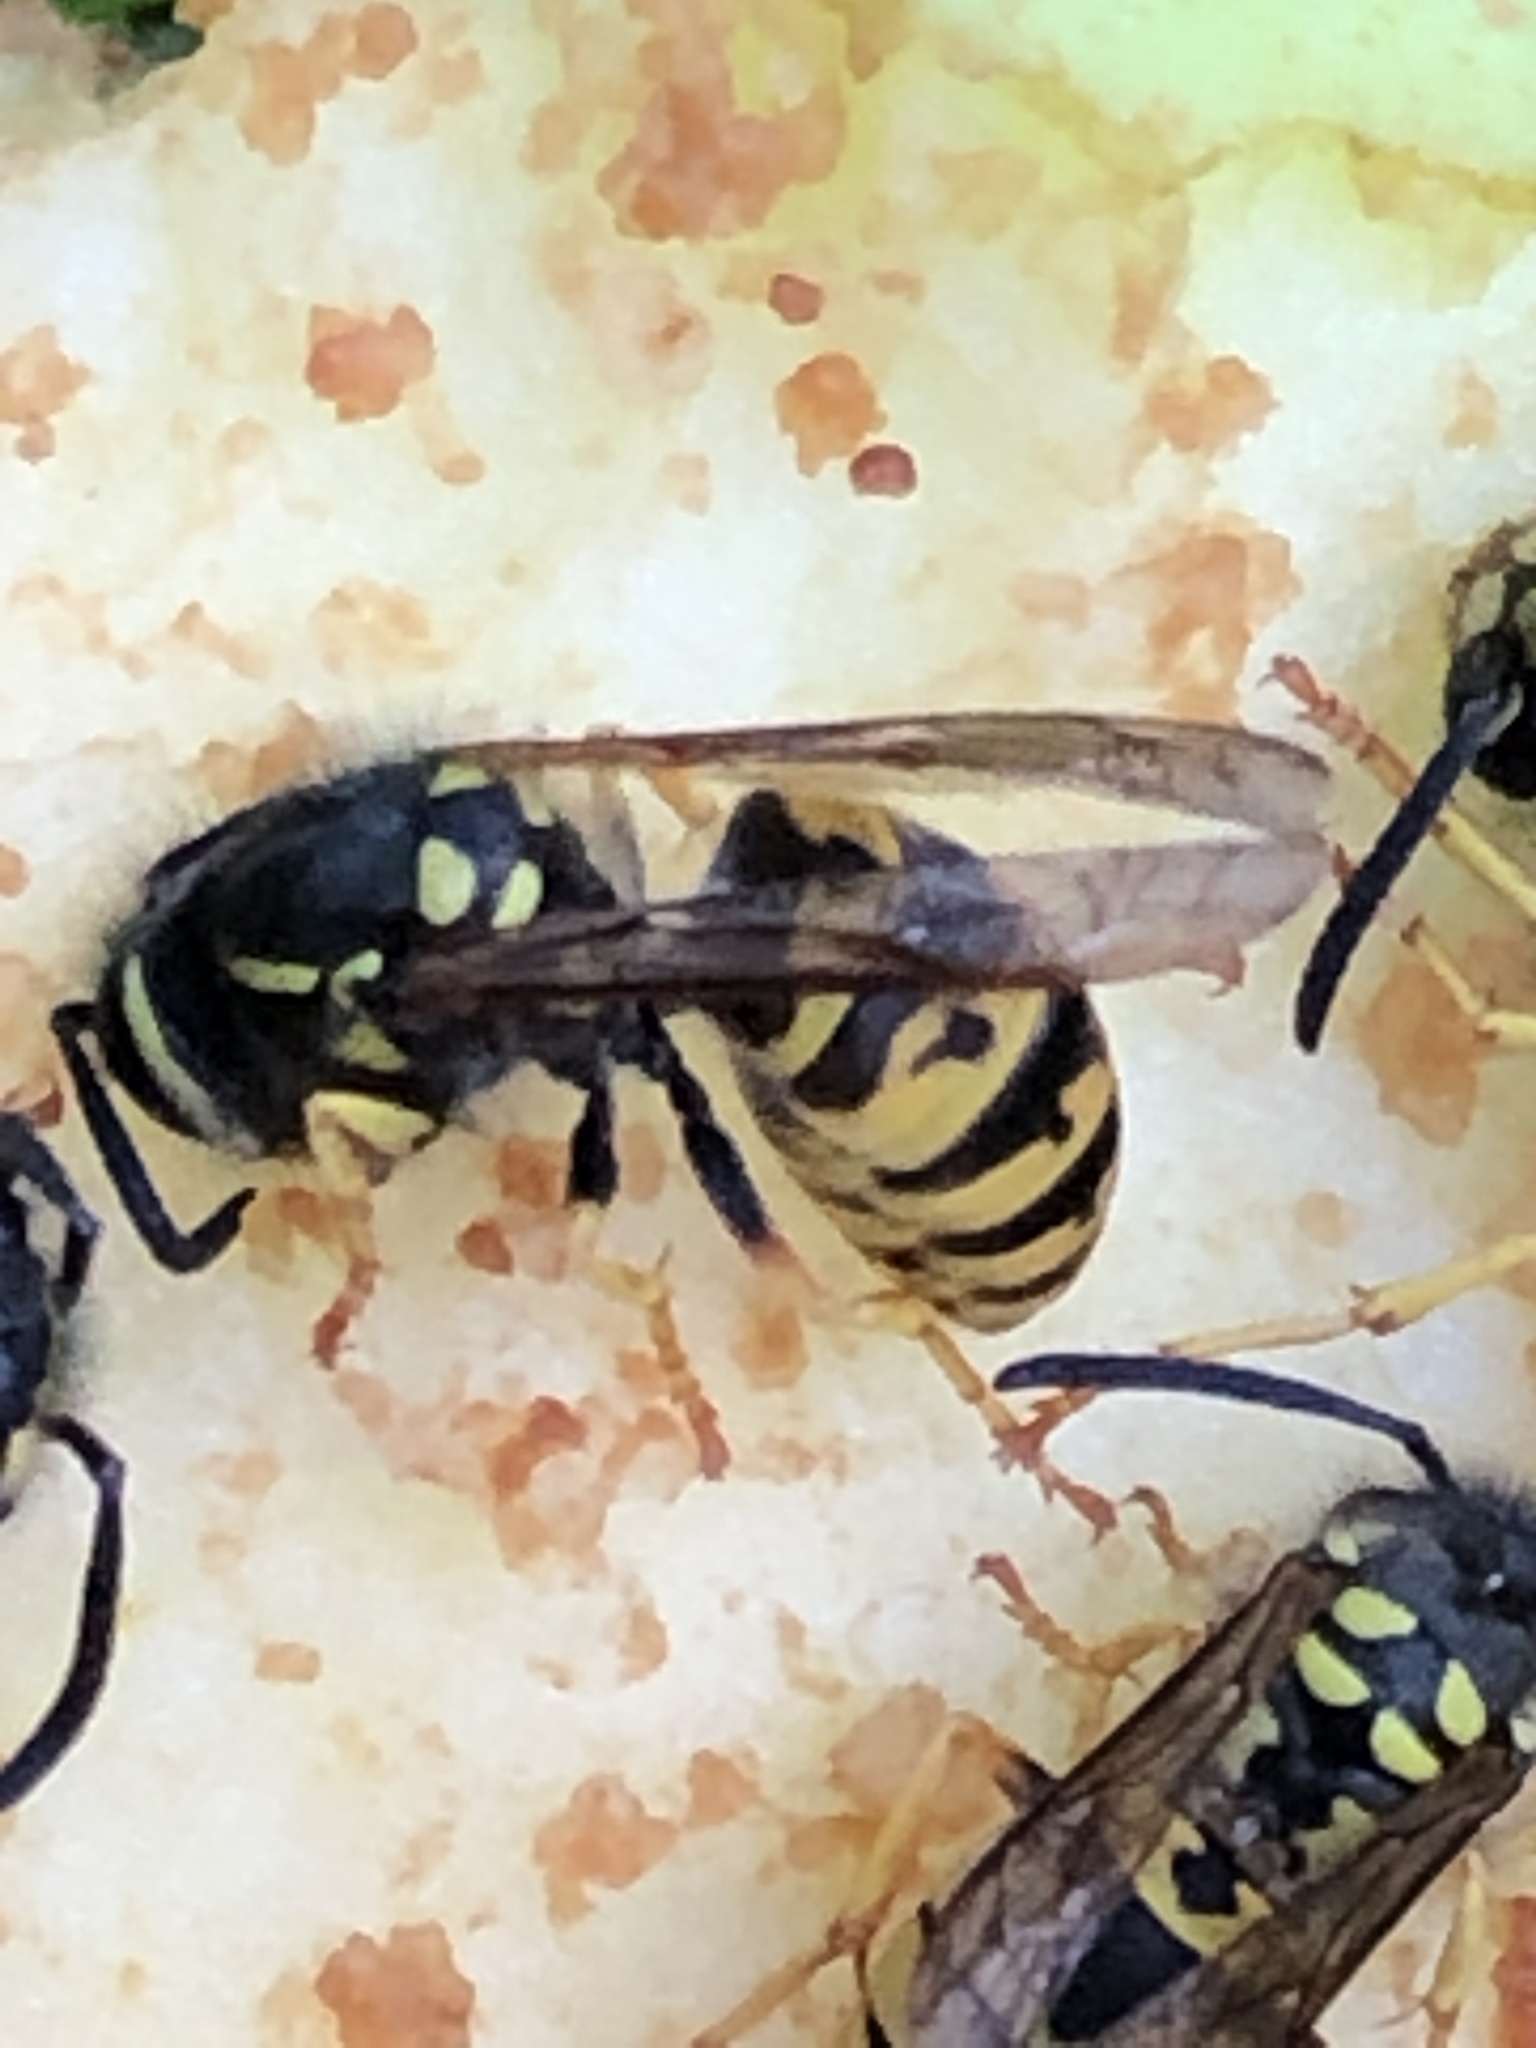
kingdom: Animalia
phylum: Arthropoda
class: Insecta
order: Hymenoptera
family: Vespidae
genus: Vespula
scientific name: Vespula germanica
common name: German wasp
